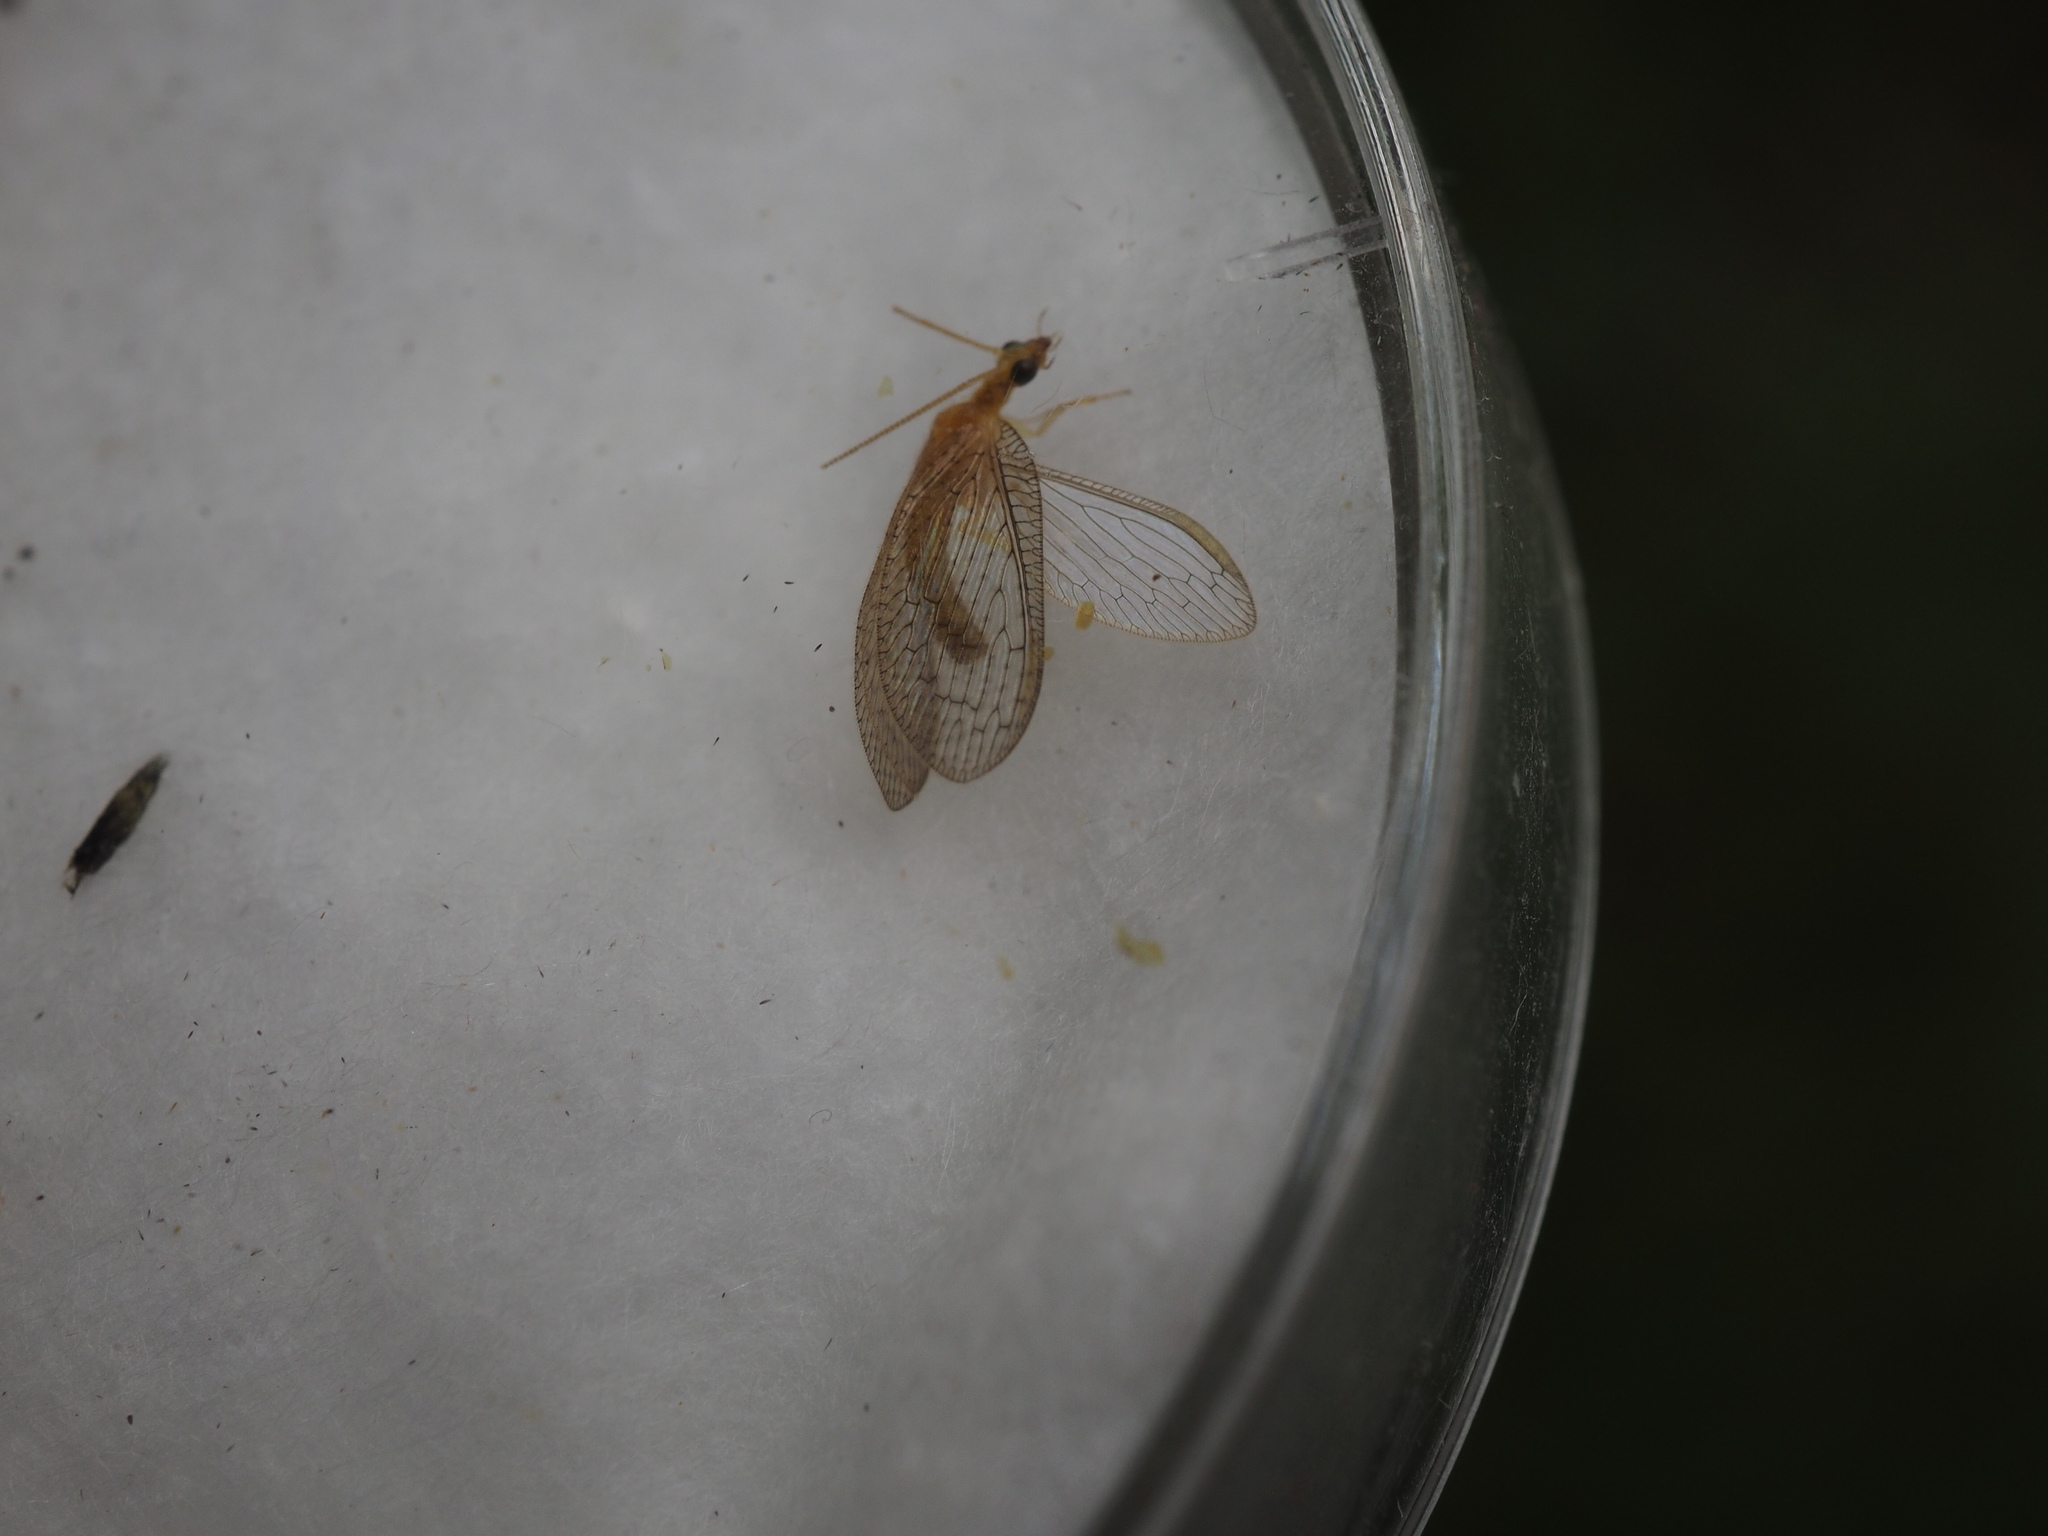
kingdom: Animalia
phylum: Arthropoda
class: Insecta
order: Neuroptera
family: Hemerobiidae
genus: Hemerobius
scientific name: Hemerobius micans
